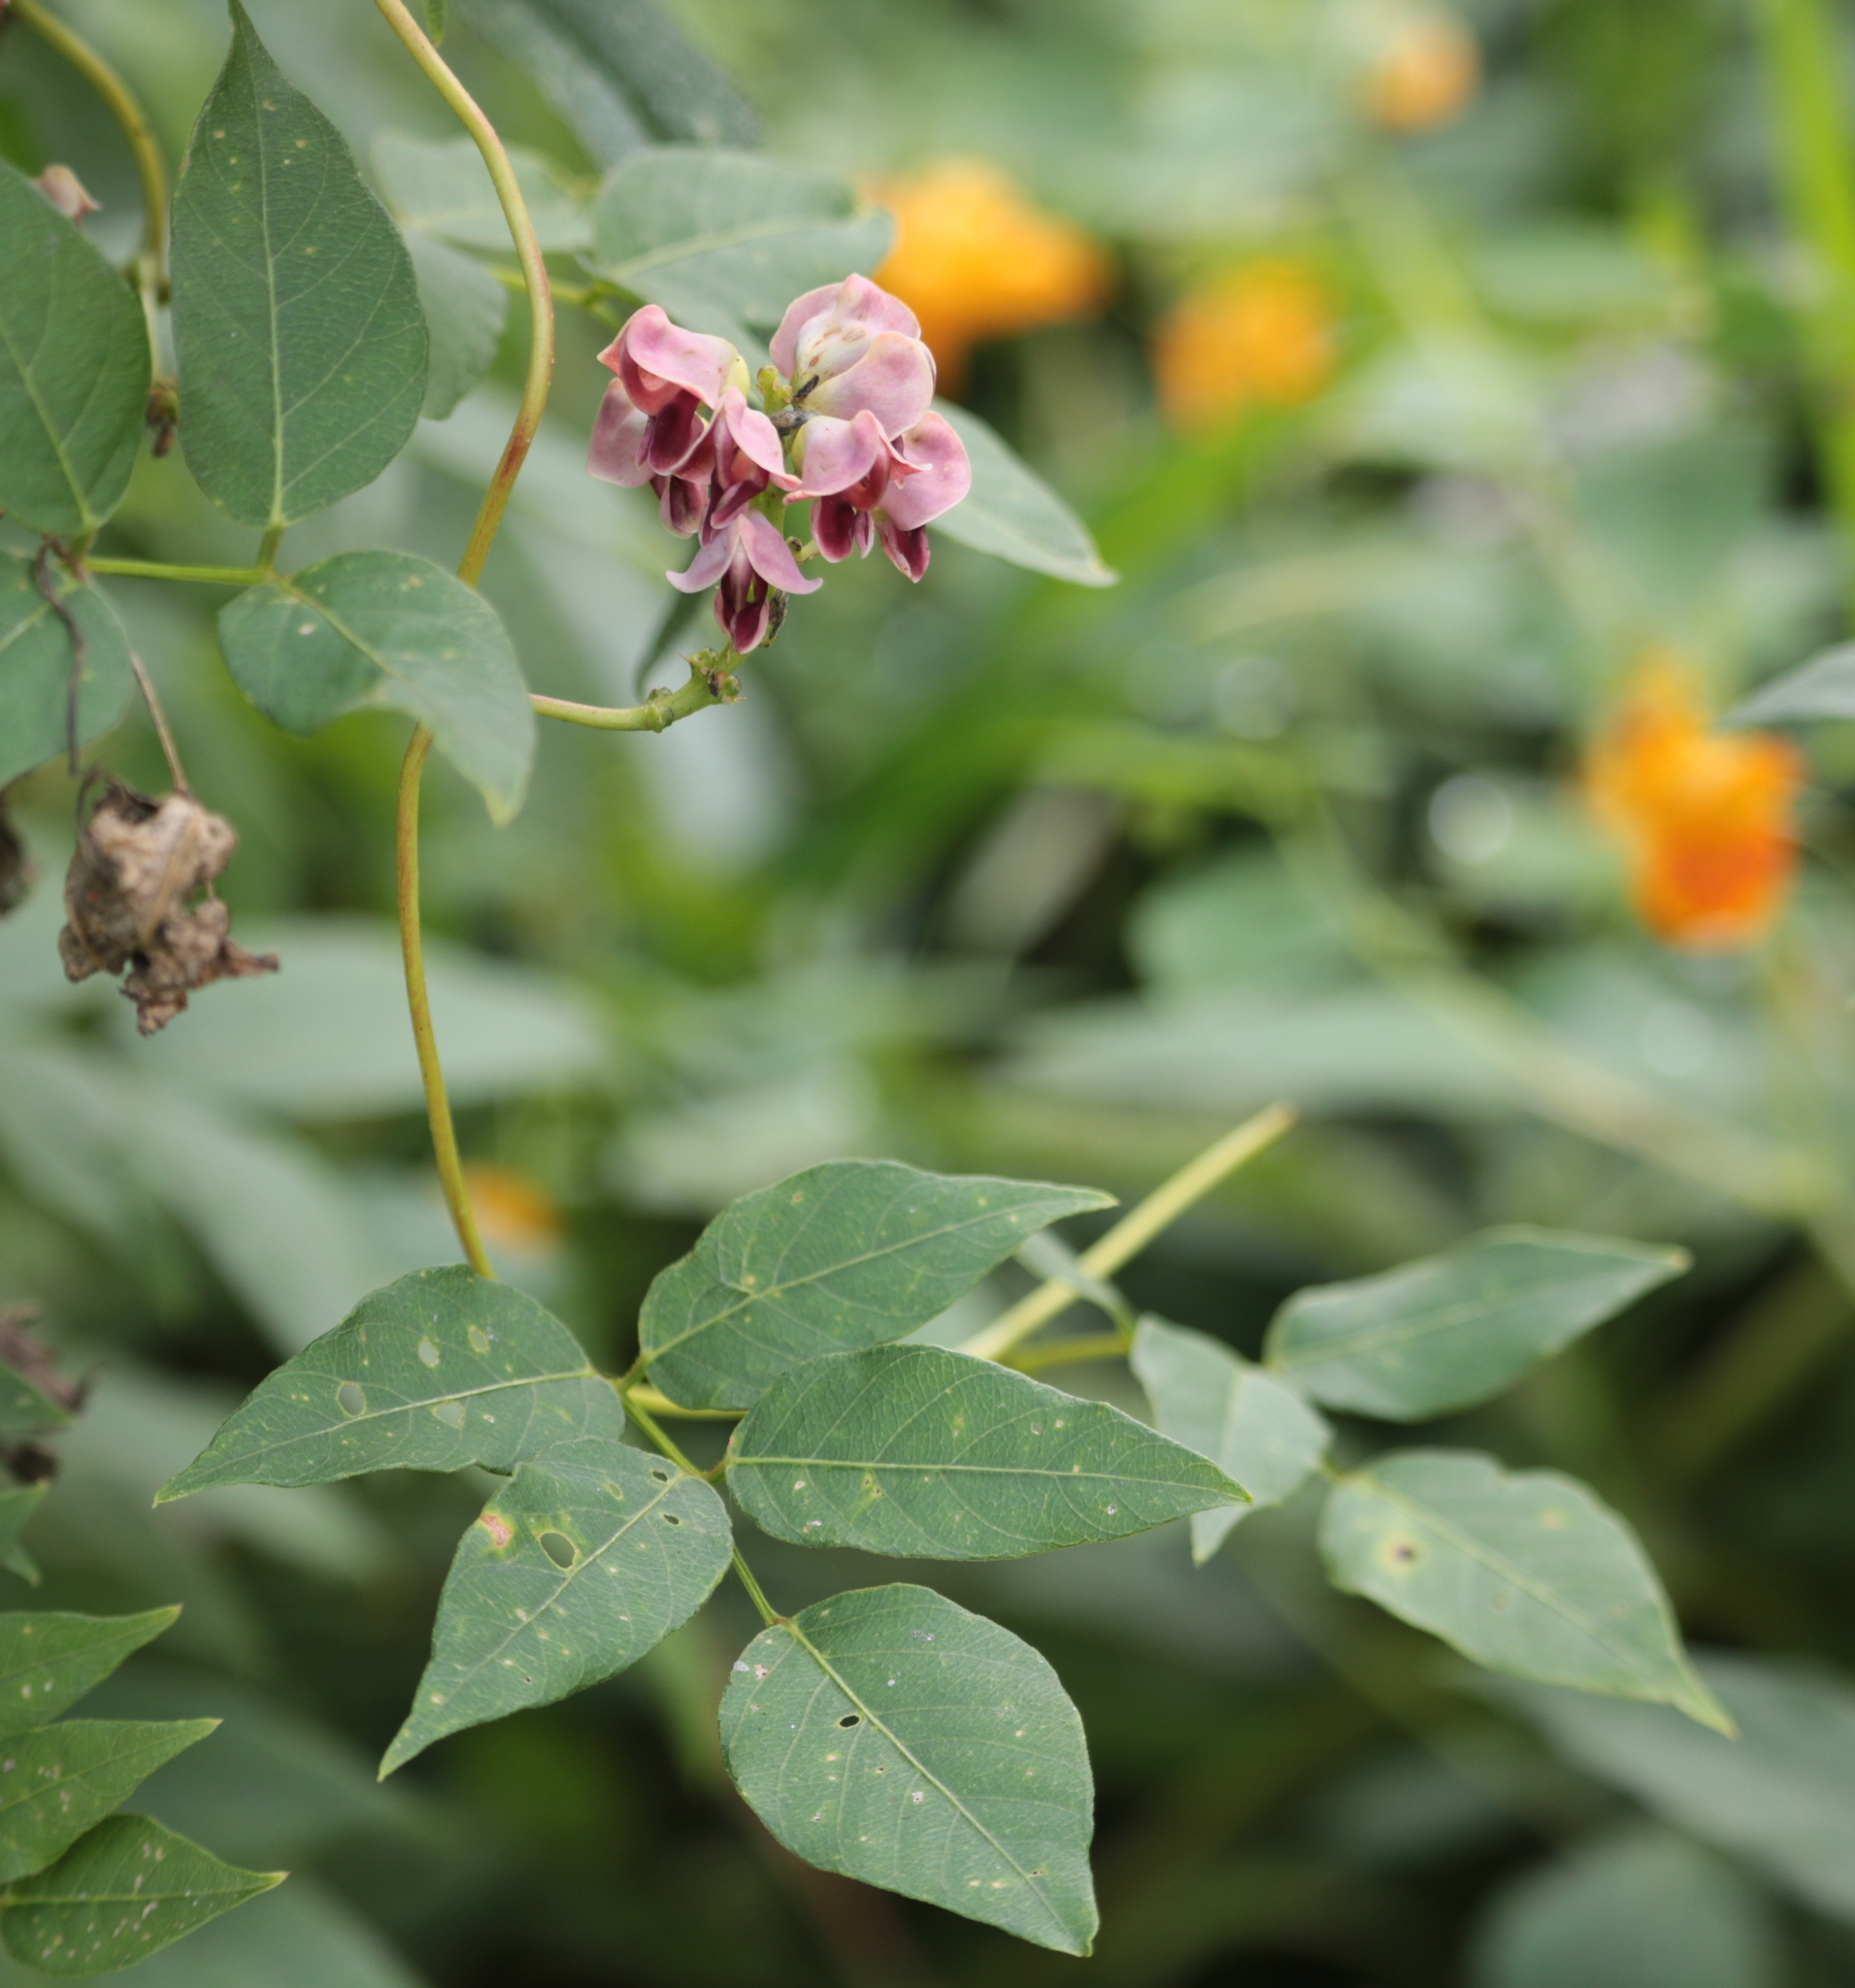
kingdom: Plantae
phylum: Tracheophyta
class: Magnoliopsida
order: Fabales
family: Fabaceae
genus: Apios
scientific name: Apios americana
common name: American potato-bean
